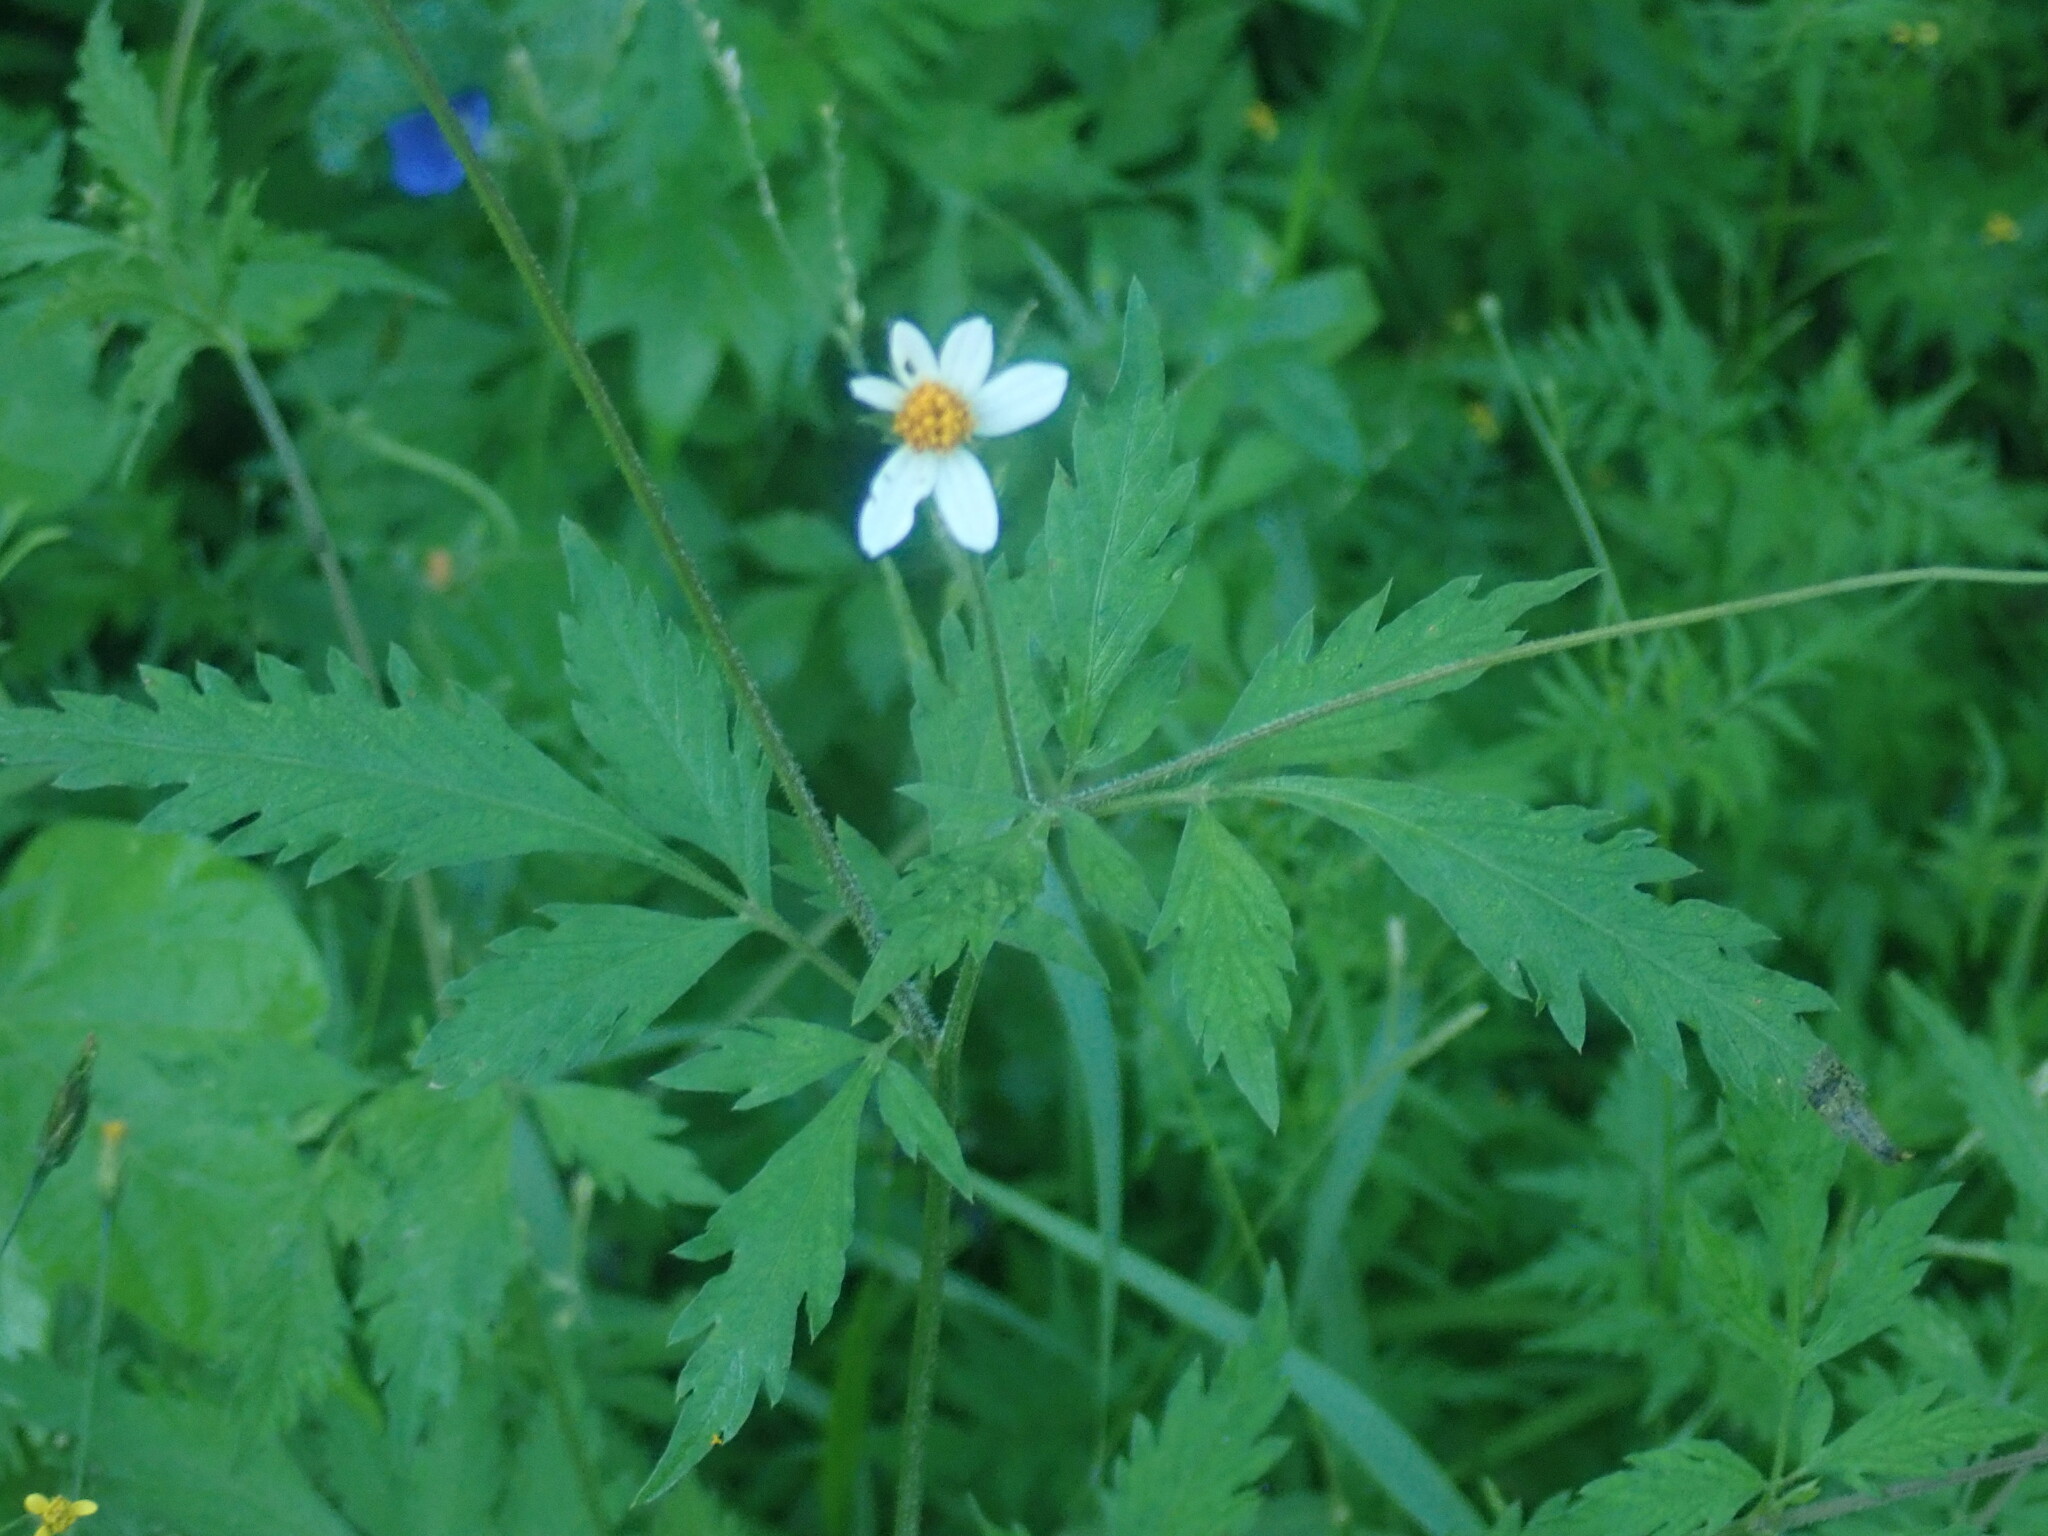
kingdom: Plantae
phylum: Tracheophyta
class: Magnoliopsida
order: Asterales
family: Asteraceae
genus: Bidens
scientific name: Bidens alba
